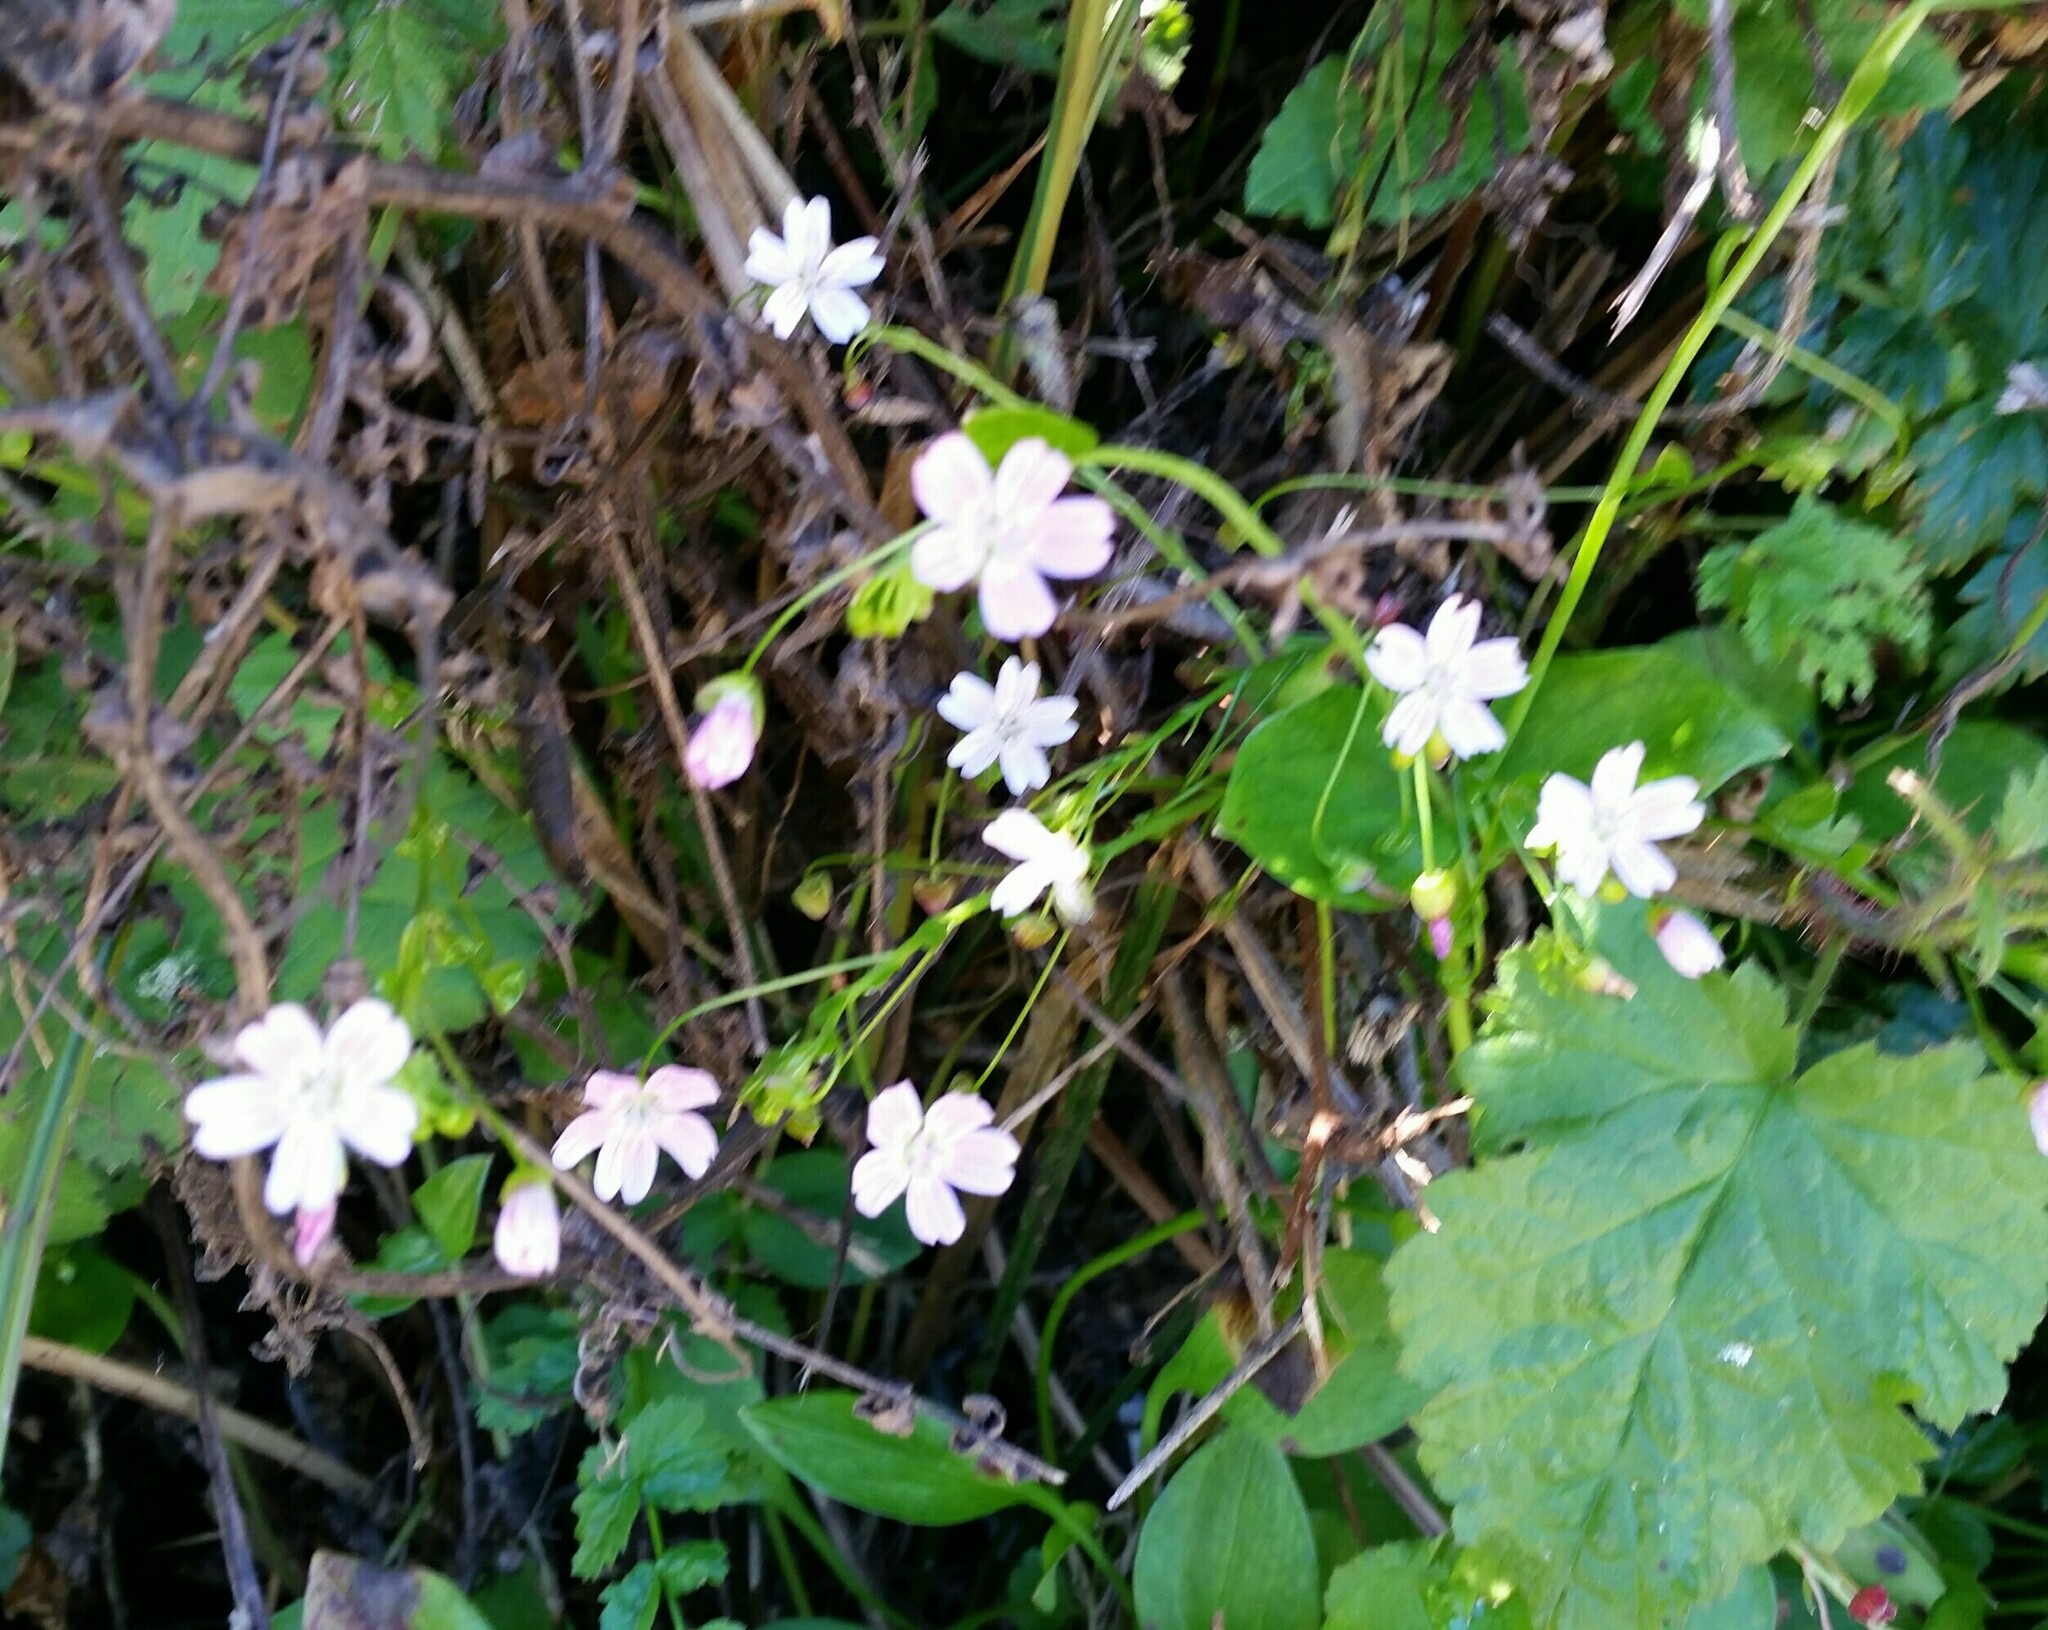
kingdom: Plantae
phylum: Tracheophyta
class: Magnoliopsida
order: Caryophyllales
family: Montiaceae
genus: Claytonia
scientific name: Claytonia sibirica
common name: Pink purslane
